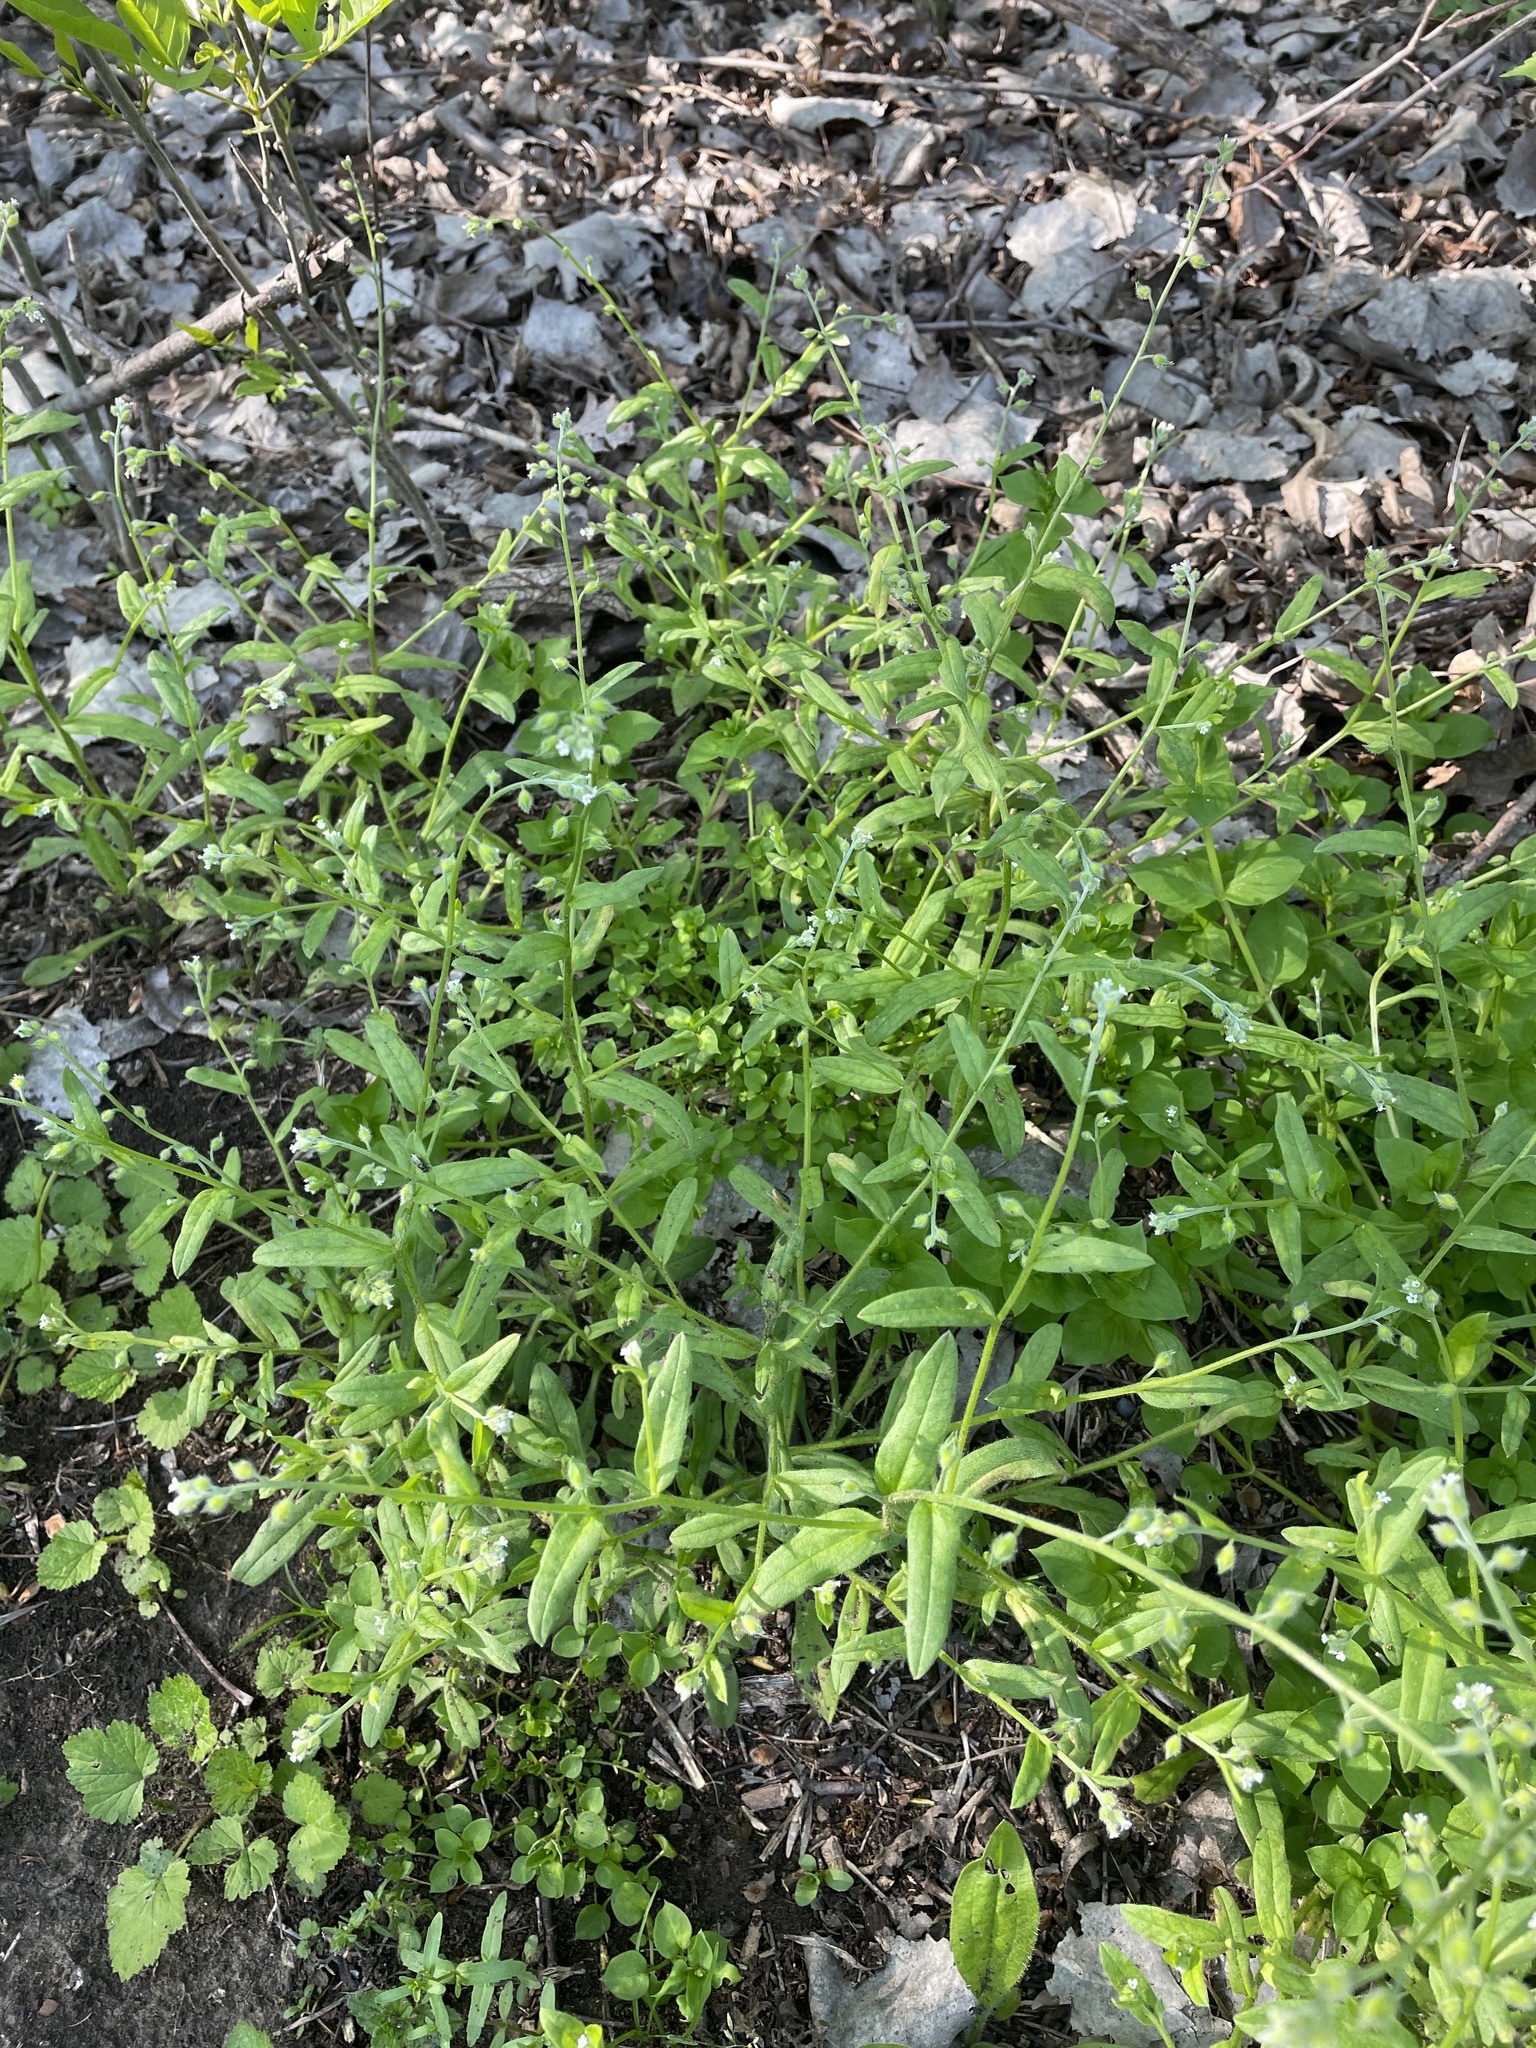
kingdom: Plantae
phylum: Tracheophyta
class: Magnoliopsida
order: Boraginales
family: Boraginaceae
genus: Myosotis
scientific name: Myosotis macrosperma
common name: Large-seed forget-me-not
